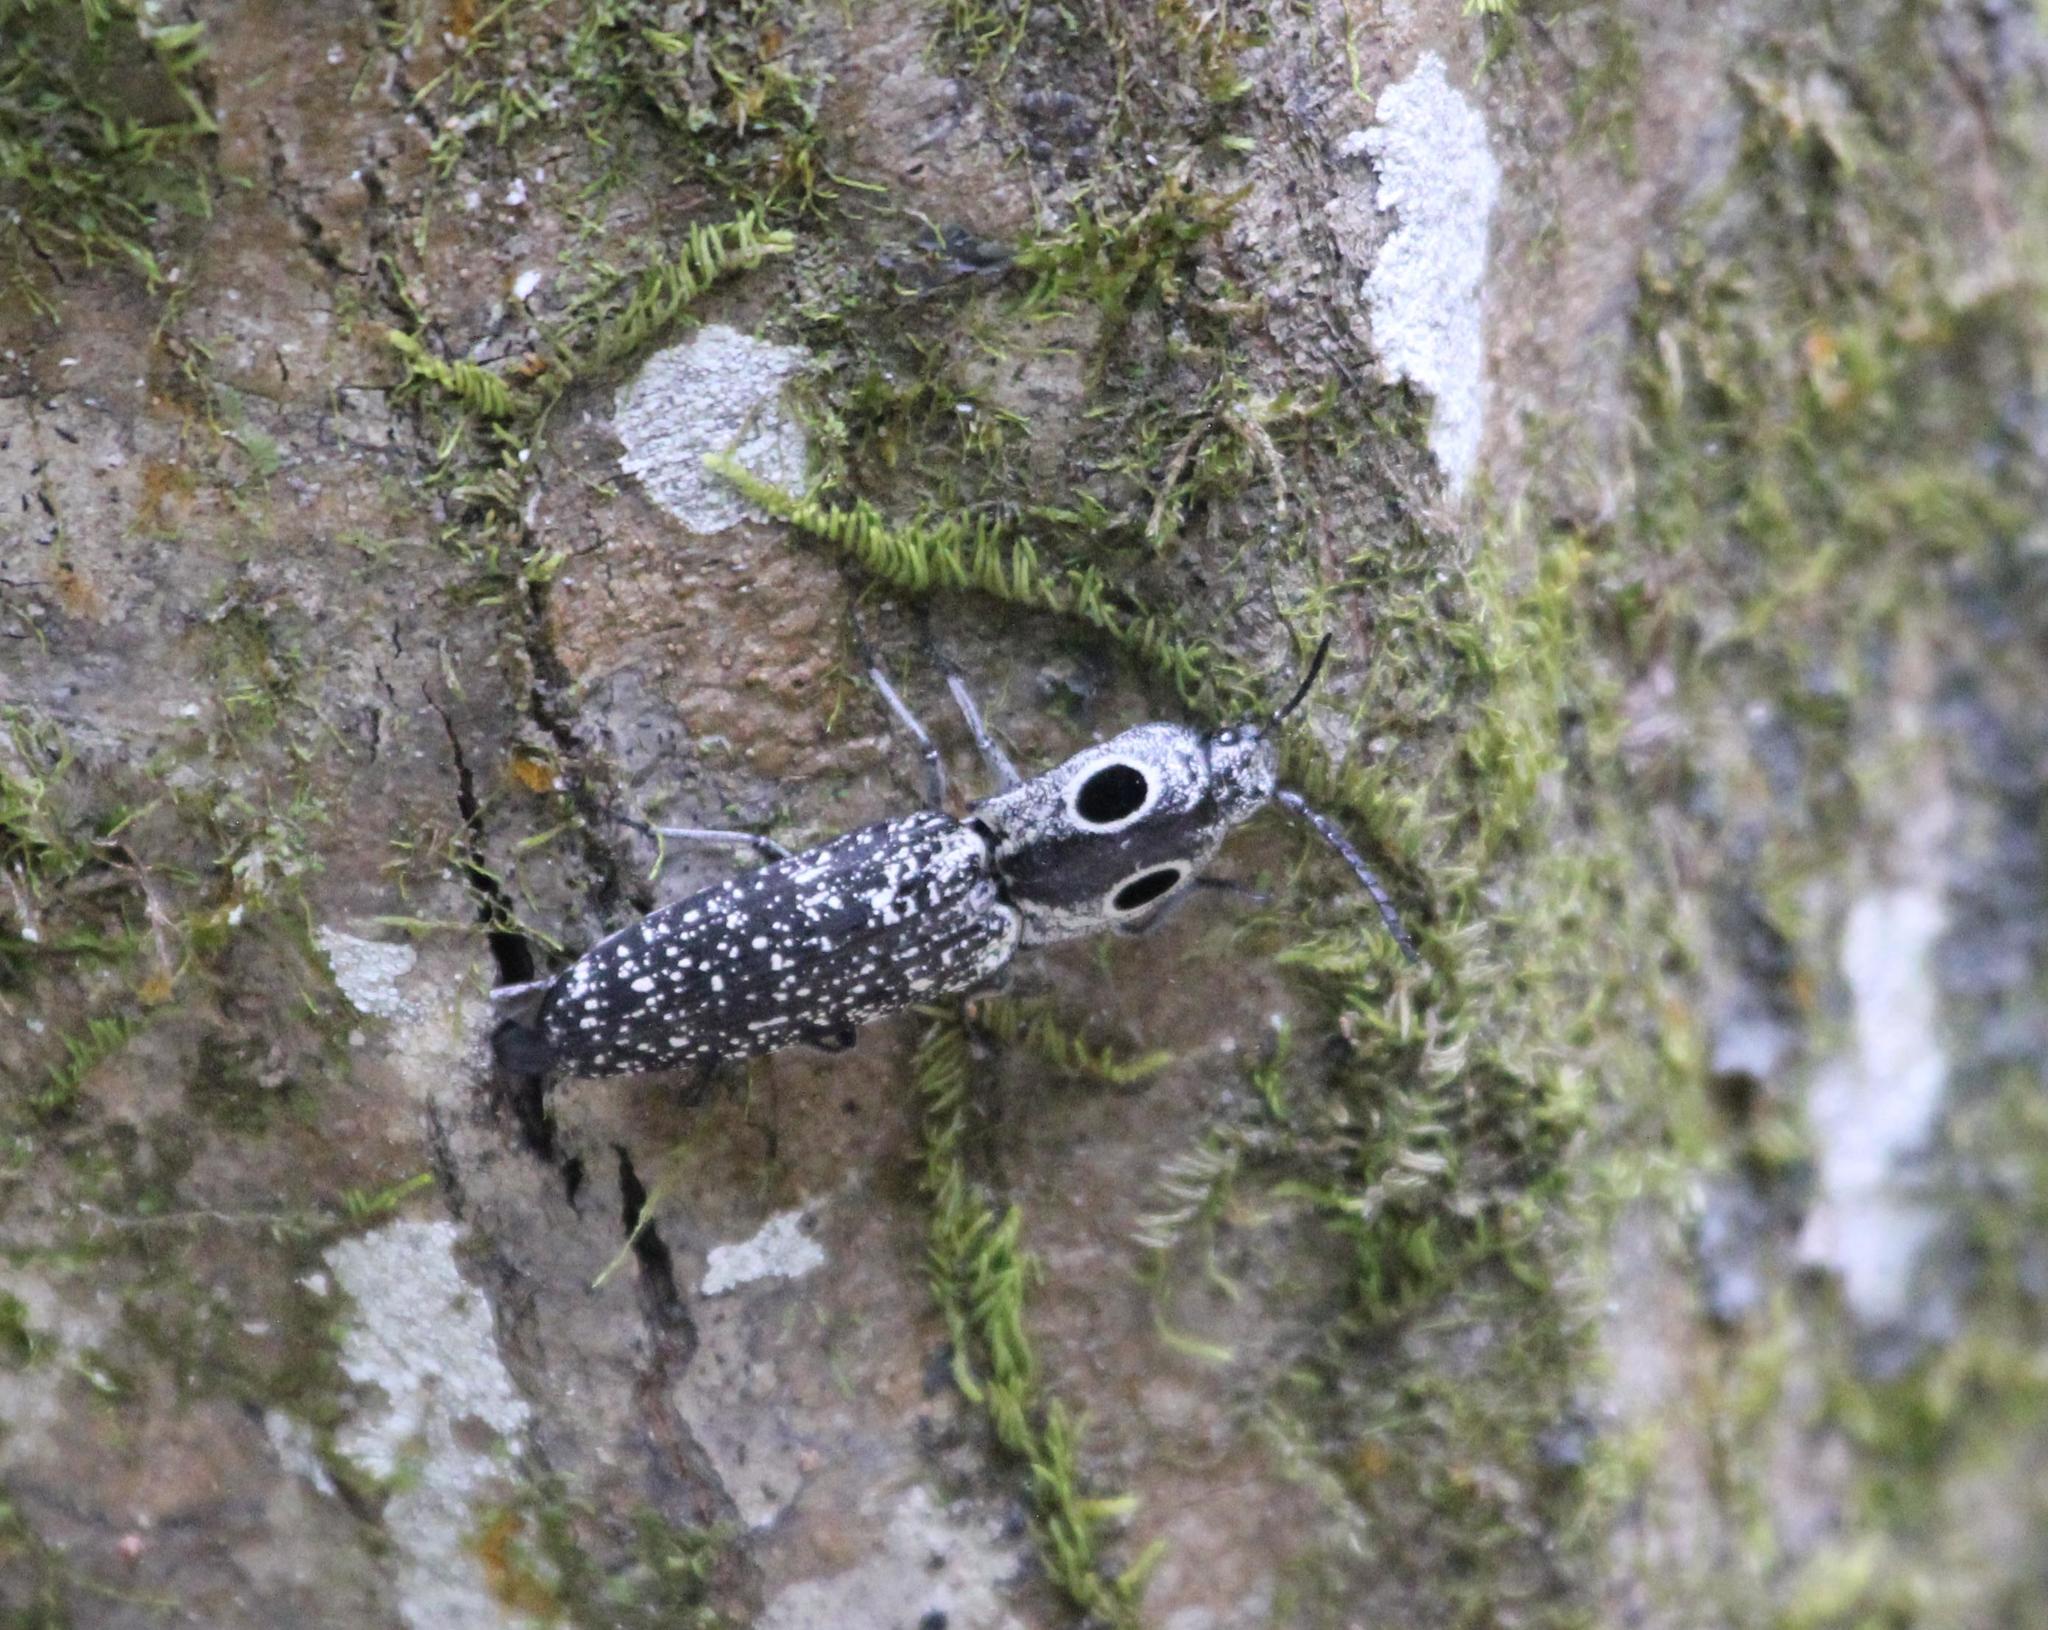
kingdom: Animalia
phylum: Arthropoda
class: Insecta
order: Coleoptera
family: Elateridae
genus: Alaus
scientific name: Alaus oculatus
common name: Eastern eyed click beetle
